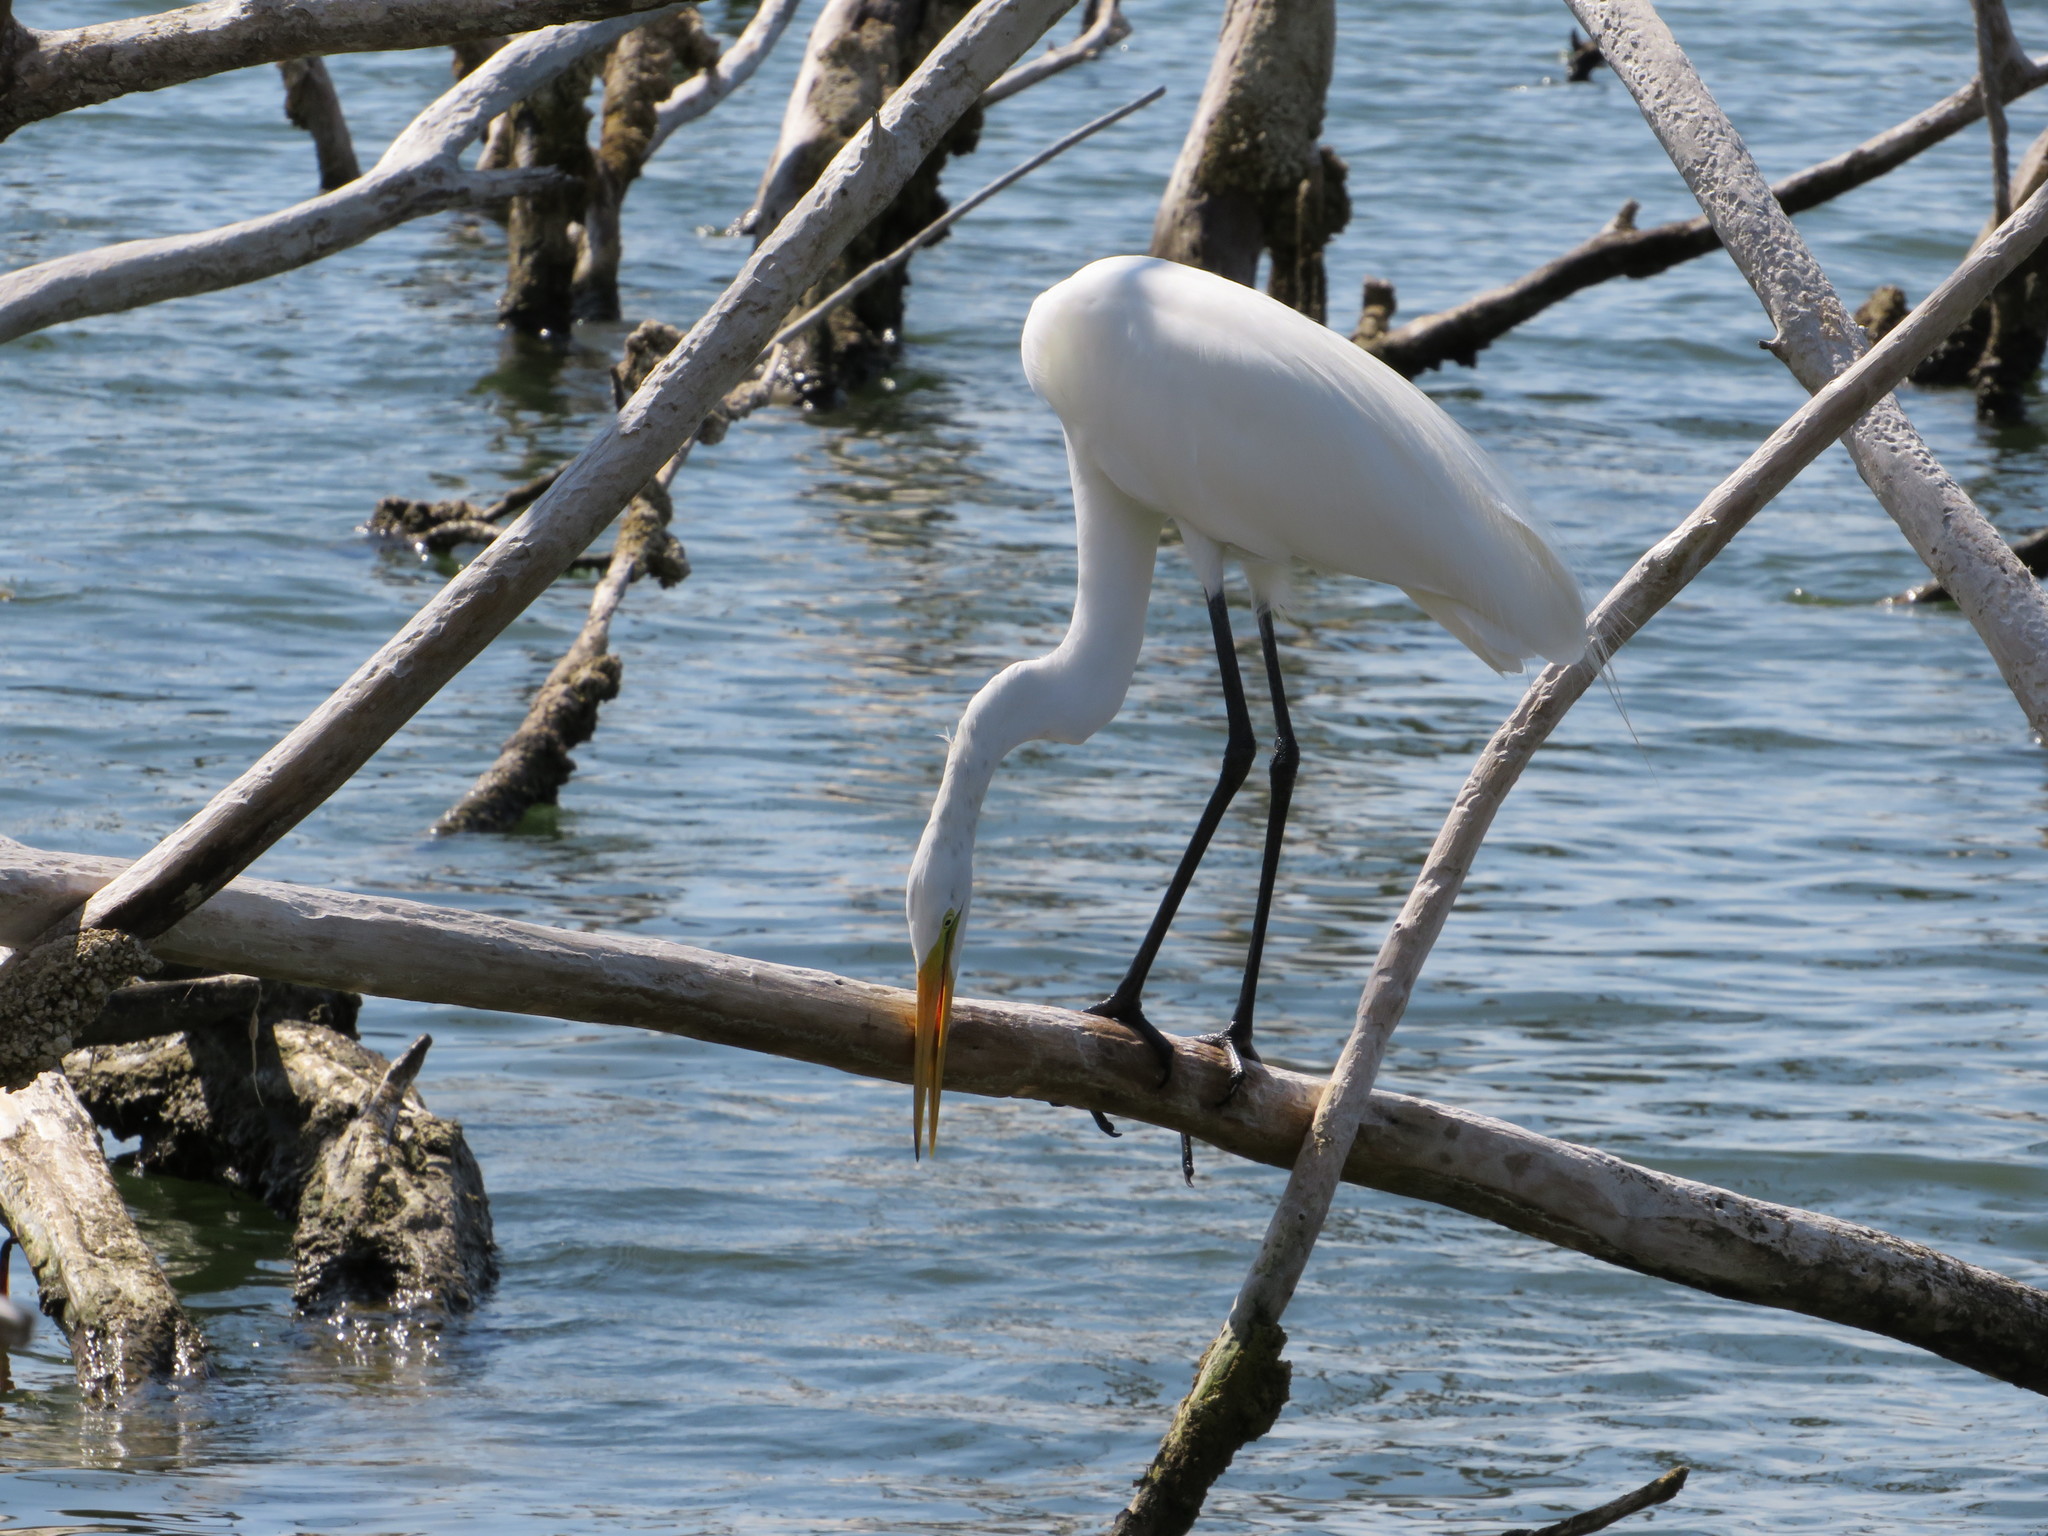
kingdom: Animalia
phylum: Chordata
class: Aves
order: Pelecaniformes
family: Ardeidae
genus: Ardea
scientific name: Ardea alba
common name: Great egret
